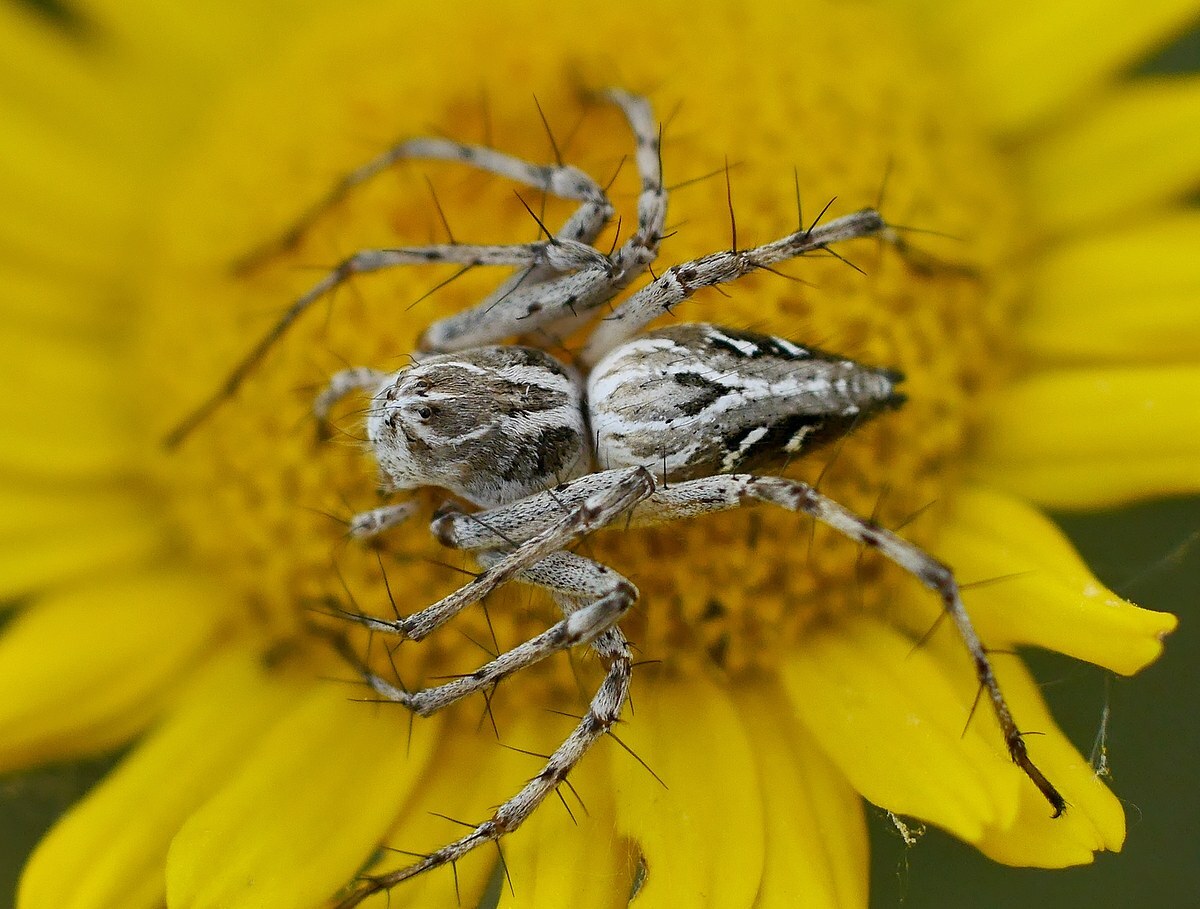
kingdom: Animalia
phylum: Arthropoda
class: Arachnida
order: Araneae
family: Oxyopidae
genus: Oxyopes
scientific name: Oxyopes heterophthalmus
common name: Lynx spider
